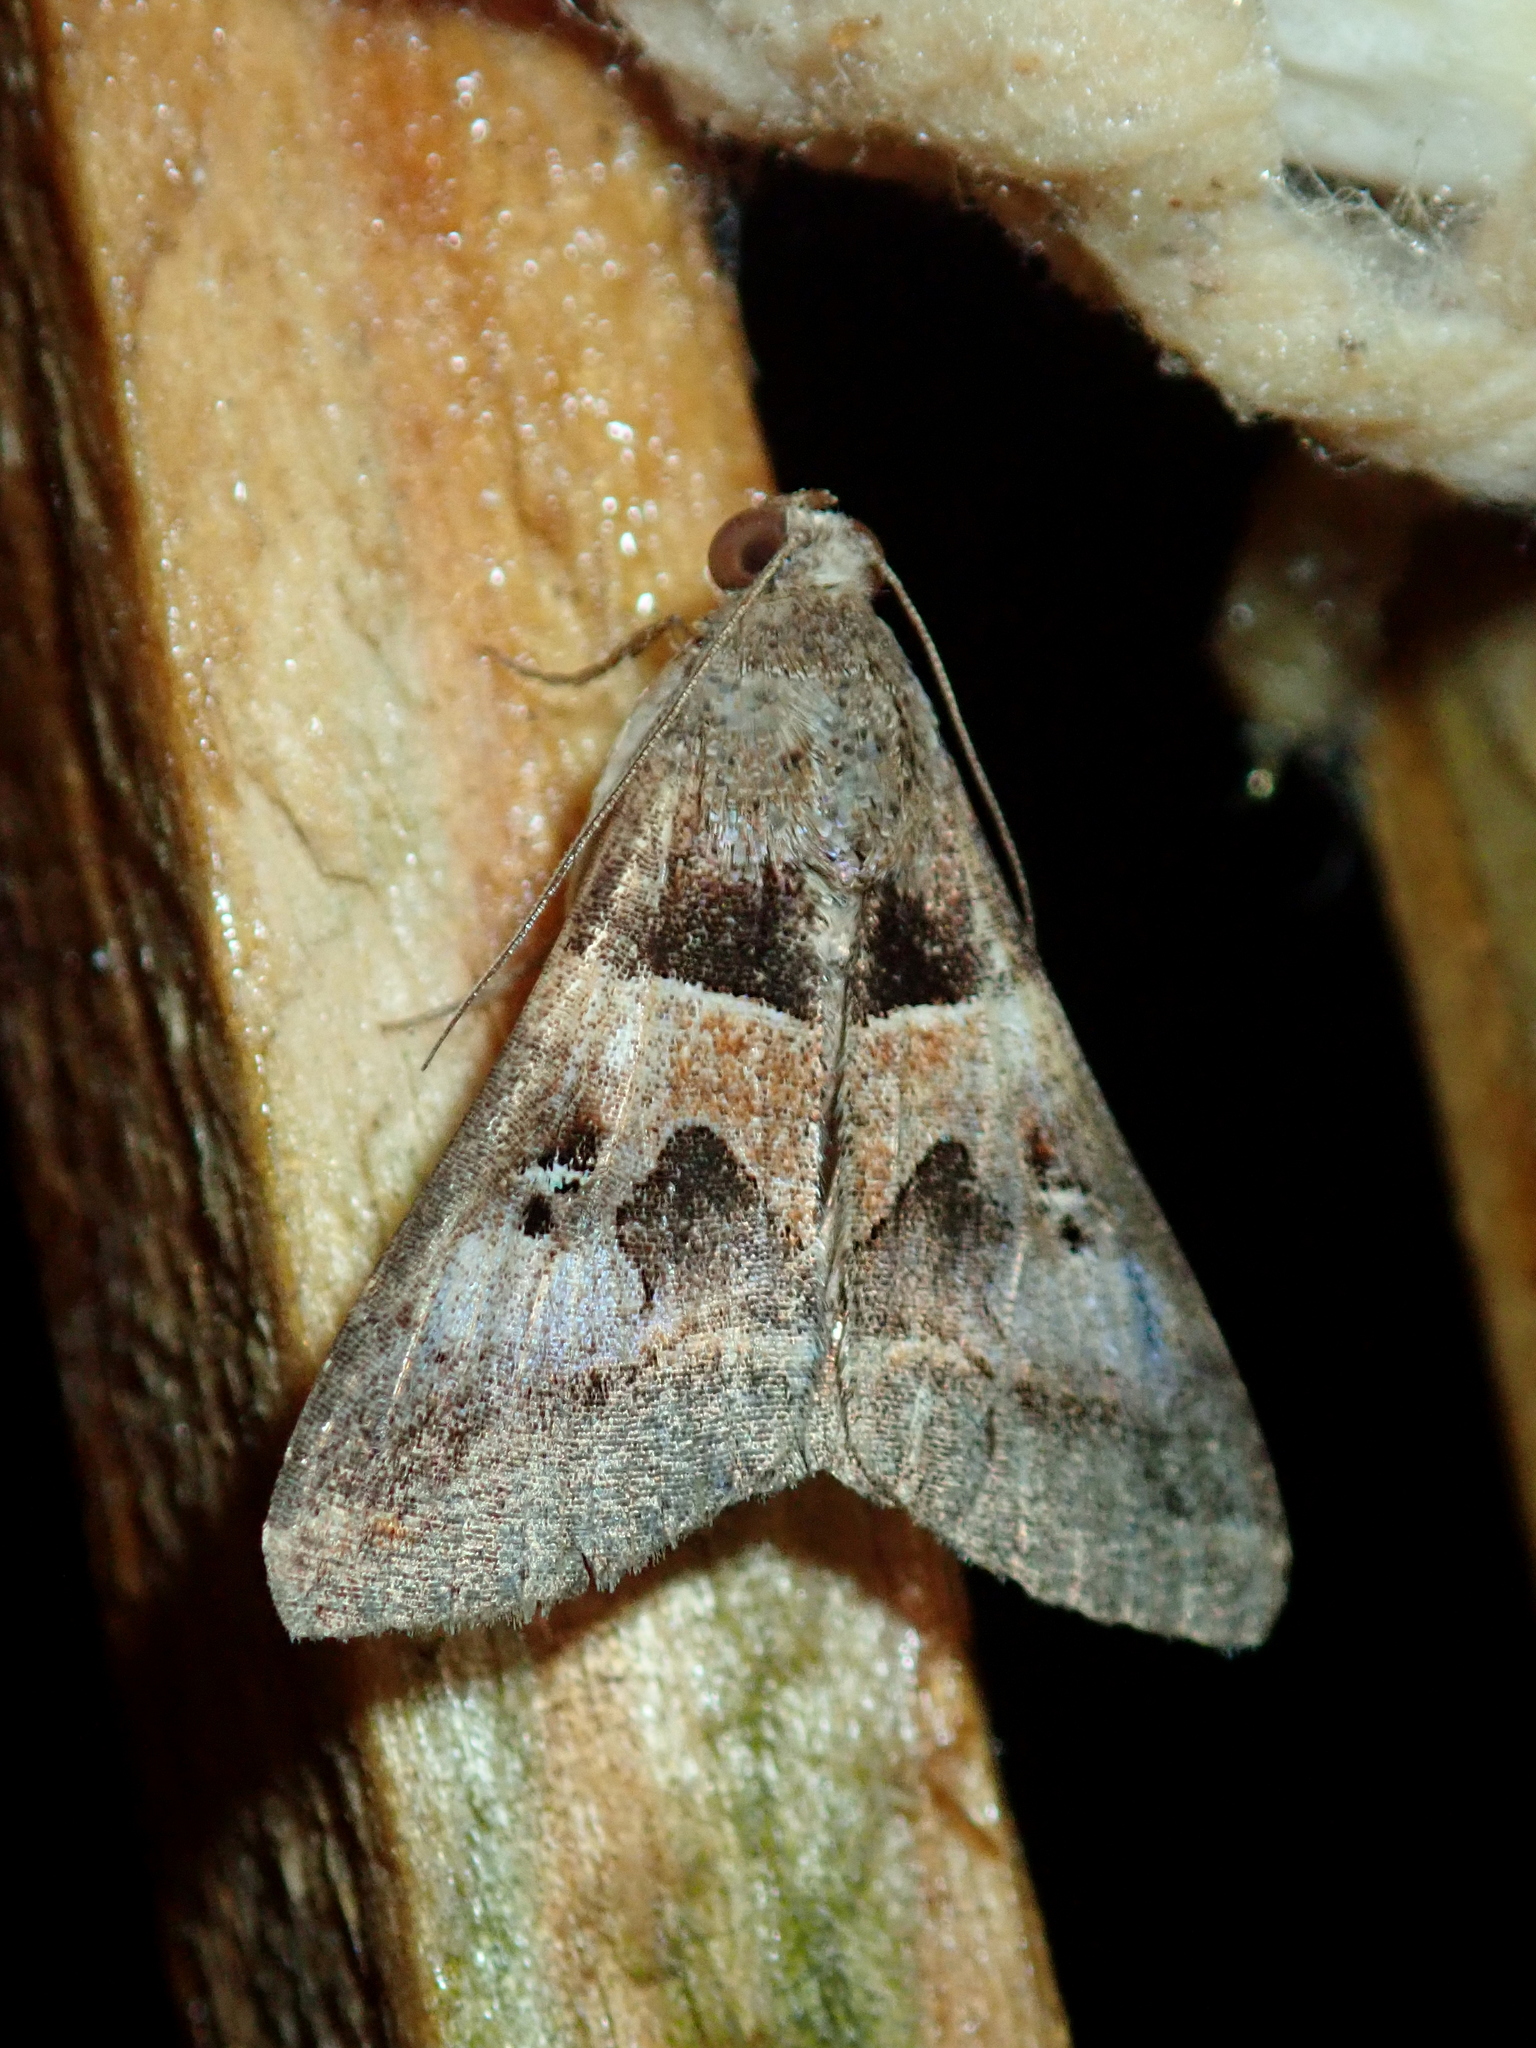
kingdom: Animalia
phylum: Arthropoda
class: Insecta
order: Lepidoptera
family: Erebidae
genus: Melipotis
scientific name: Melipotis perpendicularis
